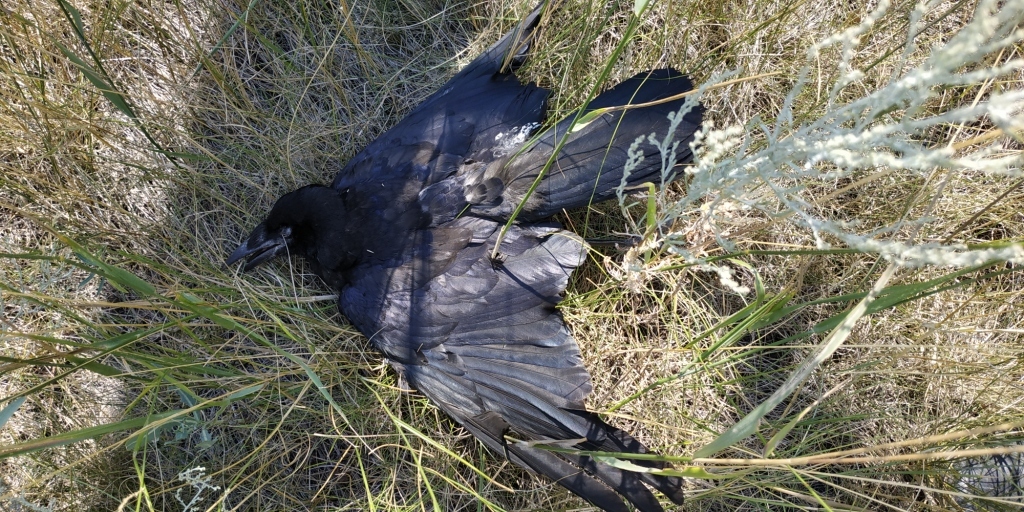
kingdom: Animalia
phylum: Chordata
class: Aves
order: Passeriformes
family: Corvidae
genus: Corvus
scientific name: Corvus frugilegus
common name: Rook
